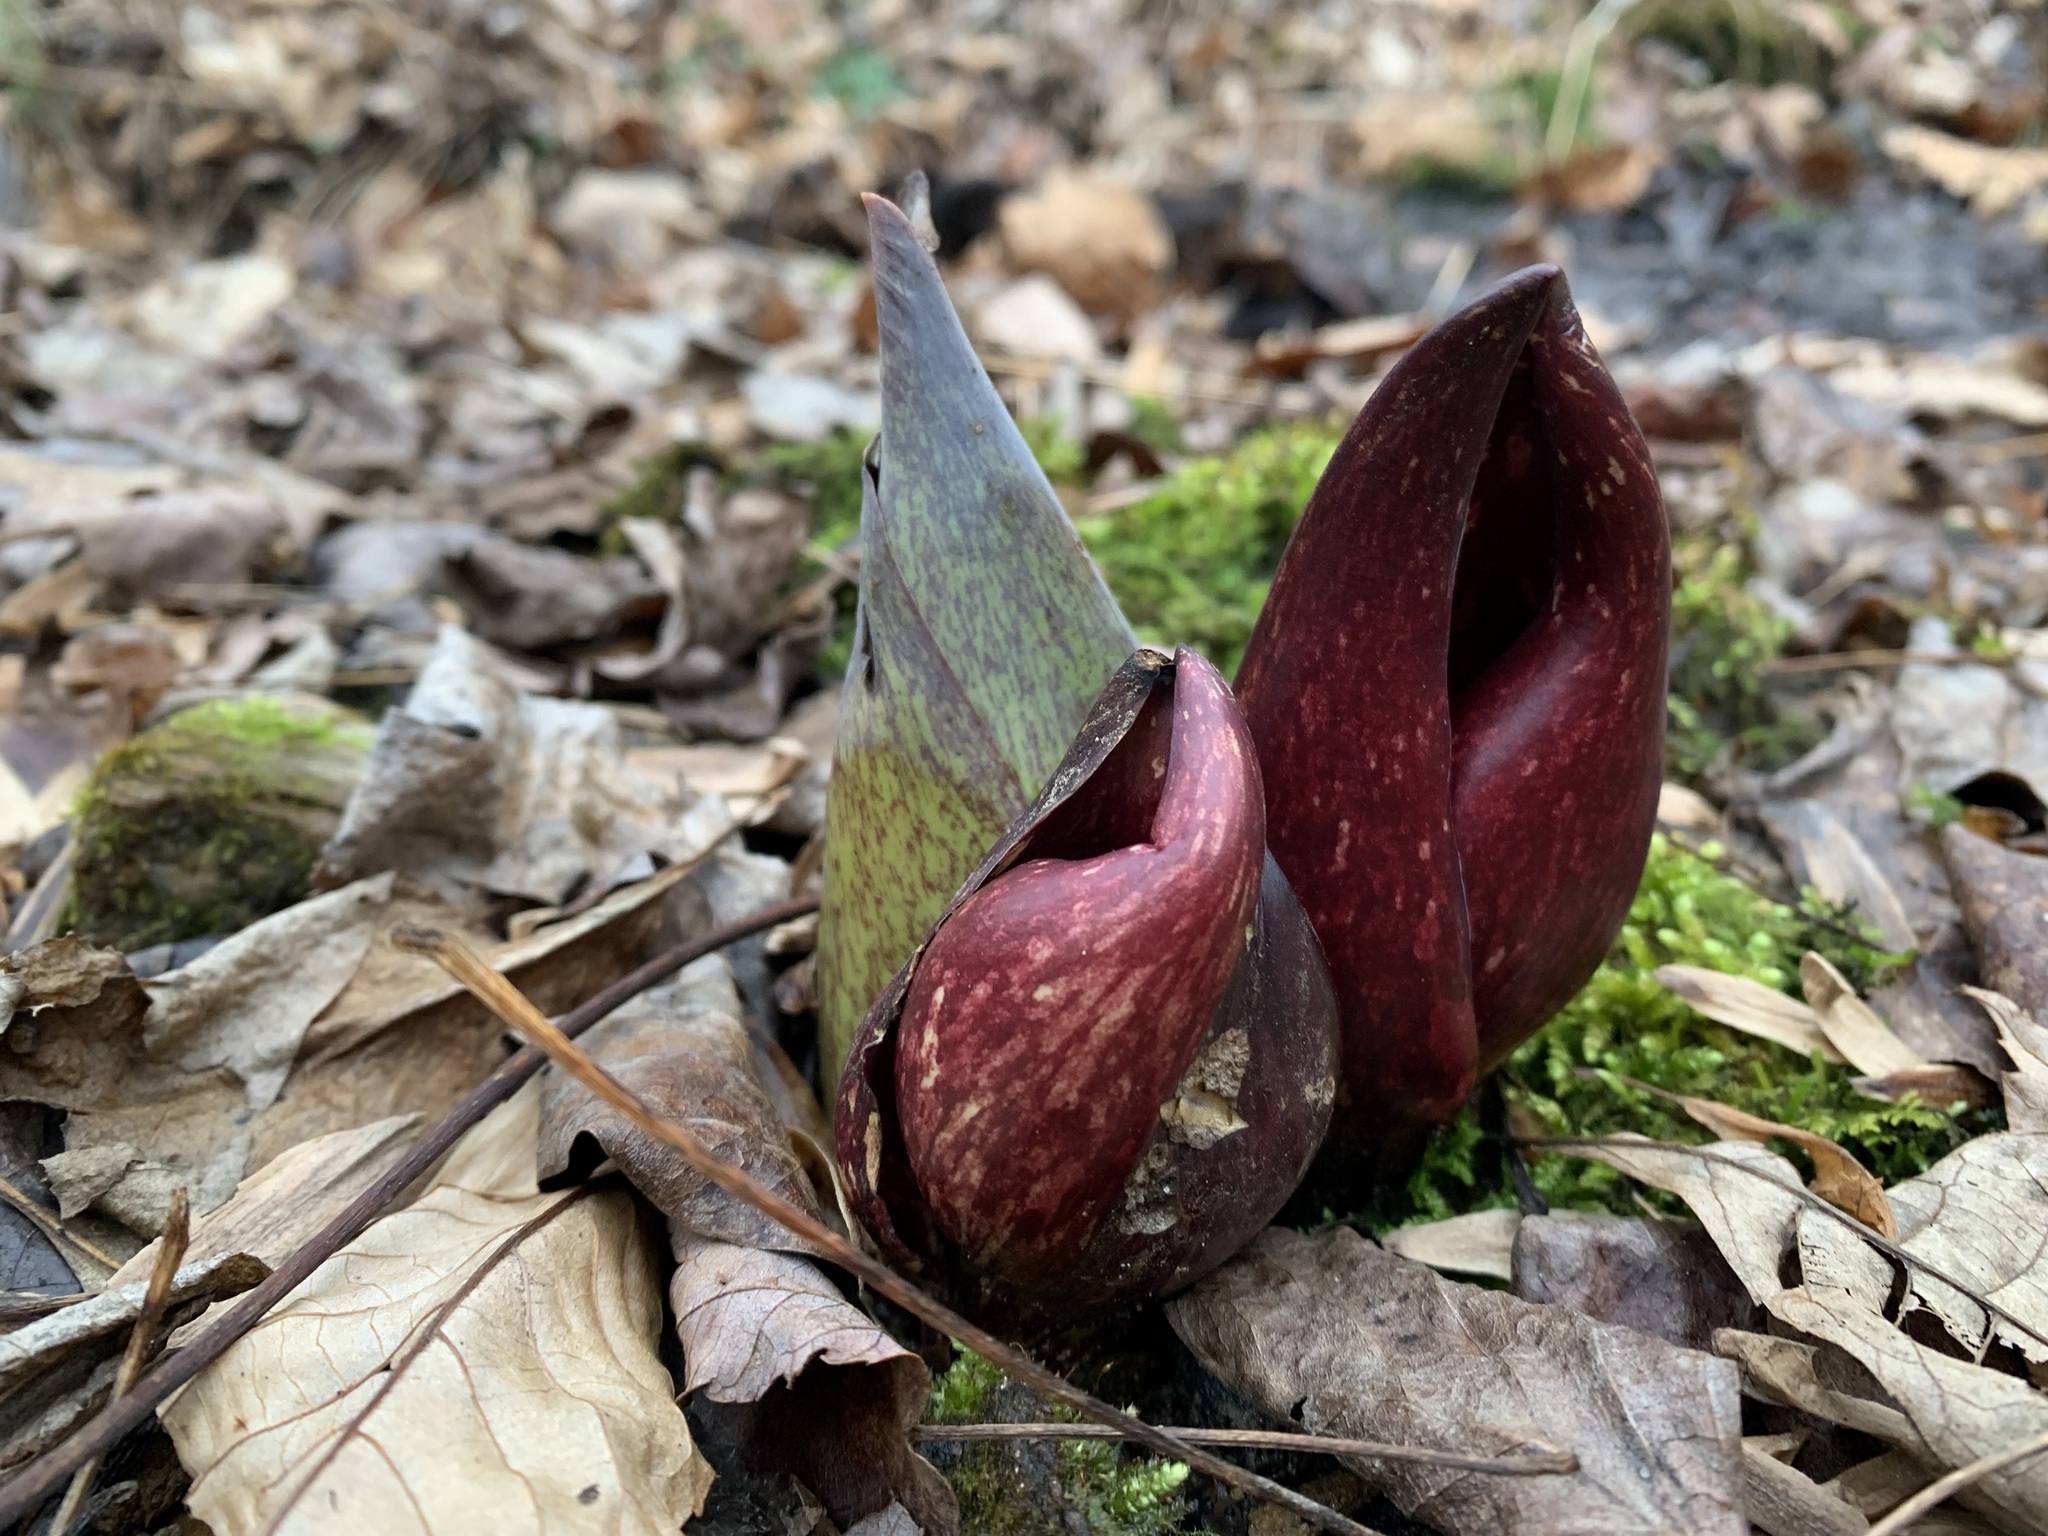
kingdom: Plantae
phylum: Tracheophyta
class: Liliopsida
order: Alismatales
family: Araceae
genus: Symplocarpus
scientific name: Symplocarpus foetidus
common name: Eastern skunk cabbage
